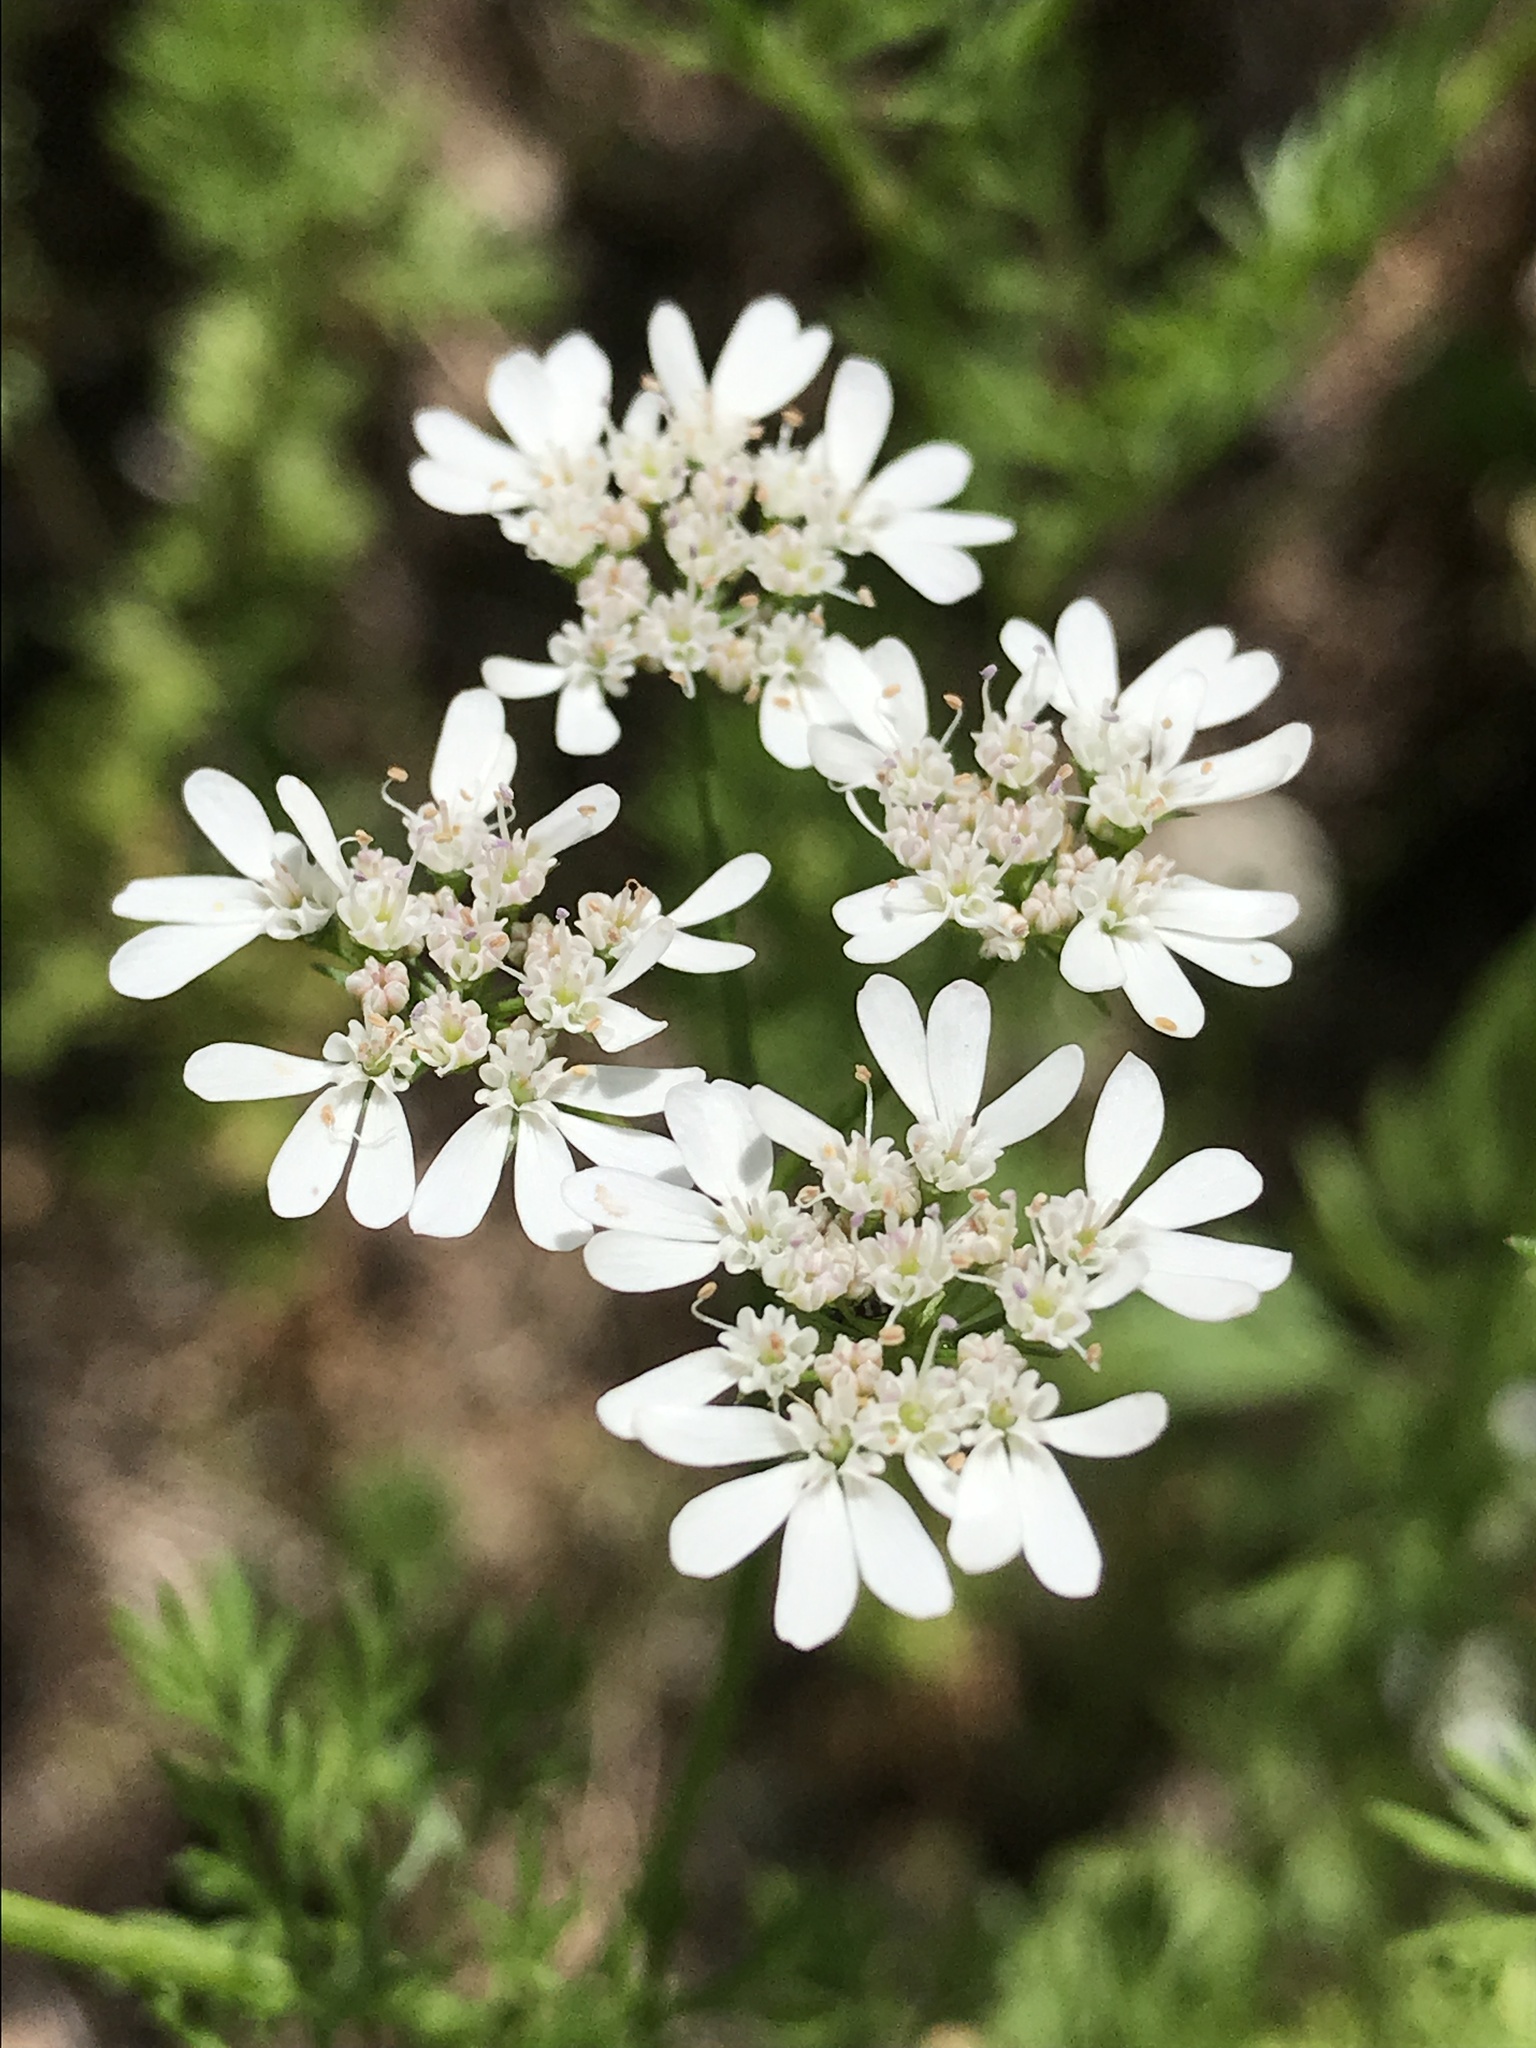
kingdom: Plantae
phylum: Tracheophyta
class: Magnoliopsida
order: Apiales
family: Apiaceae
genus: Coriandrum
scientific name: Coriandrum sativum
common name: Coriander
